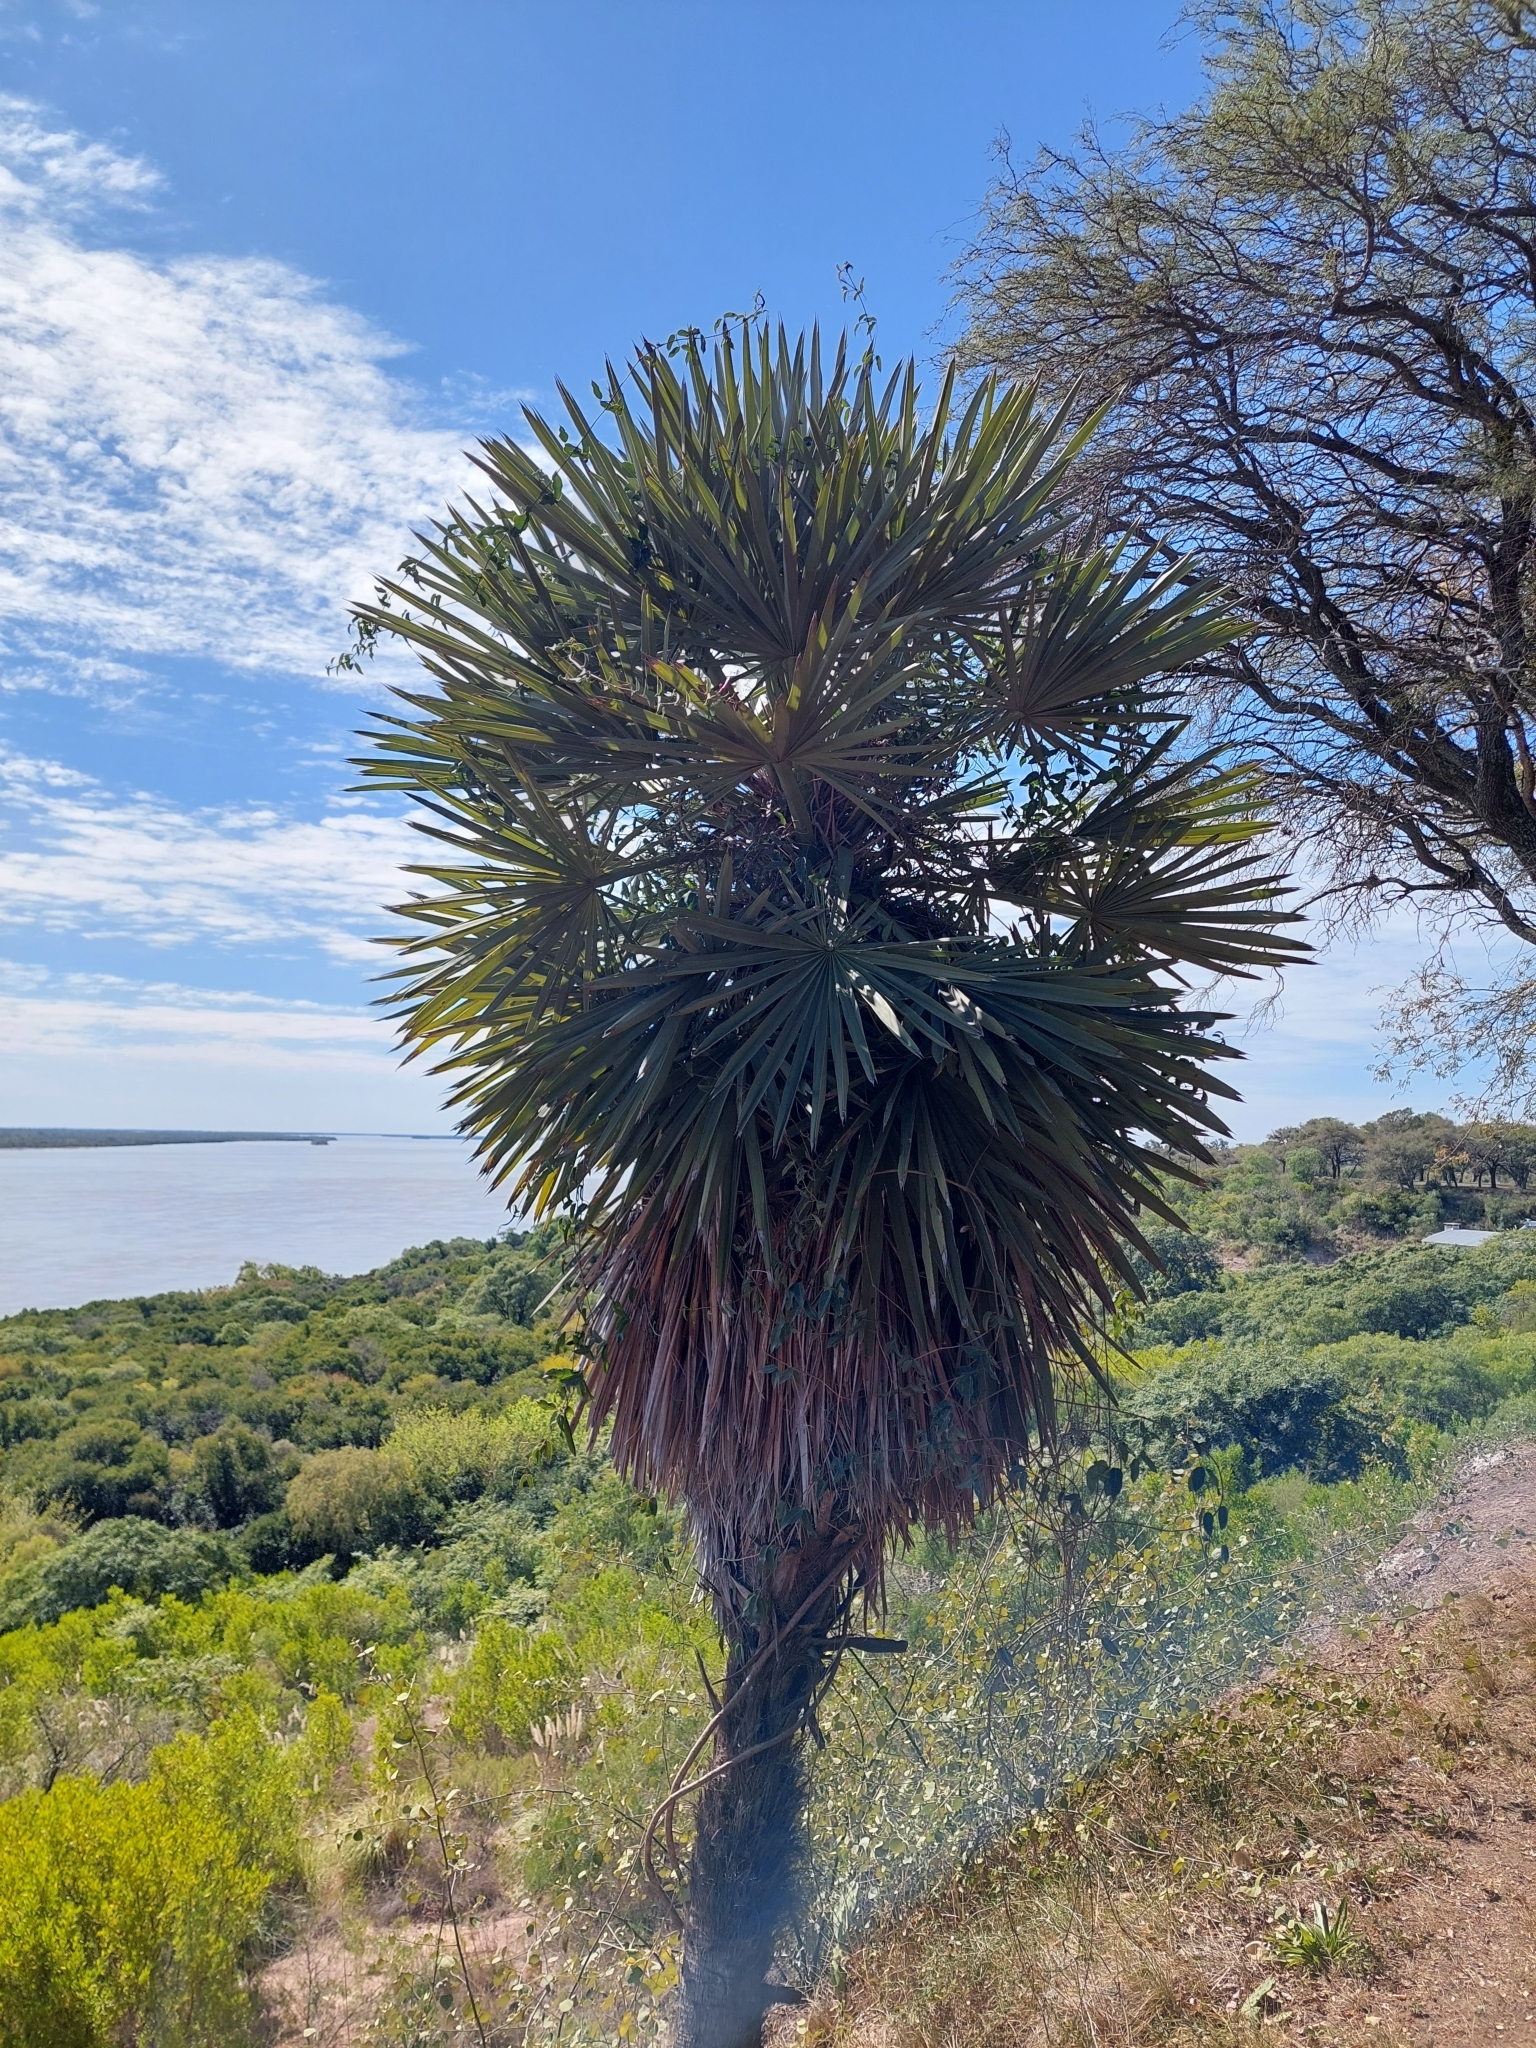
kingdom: Plantae
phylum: Tracheophyta
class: Liliopsida
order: Arecales
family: Arecaceae
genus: Trithrinax
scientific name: Trithrinax campestris
